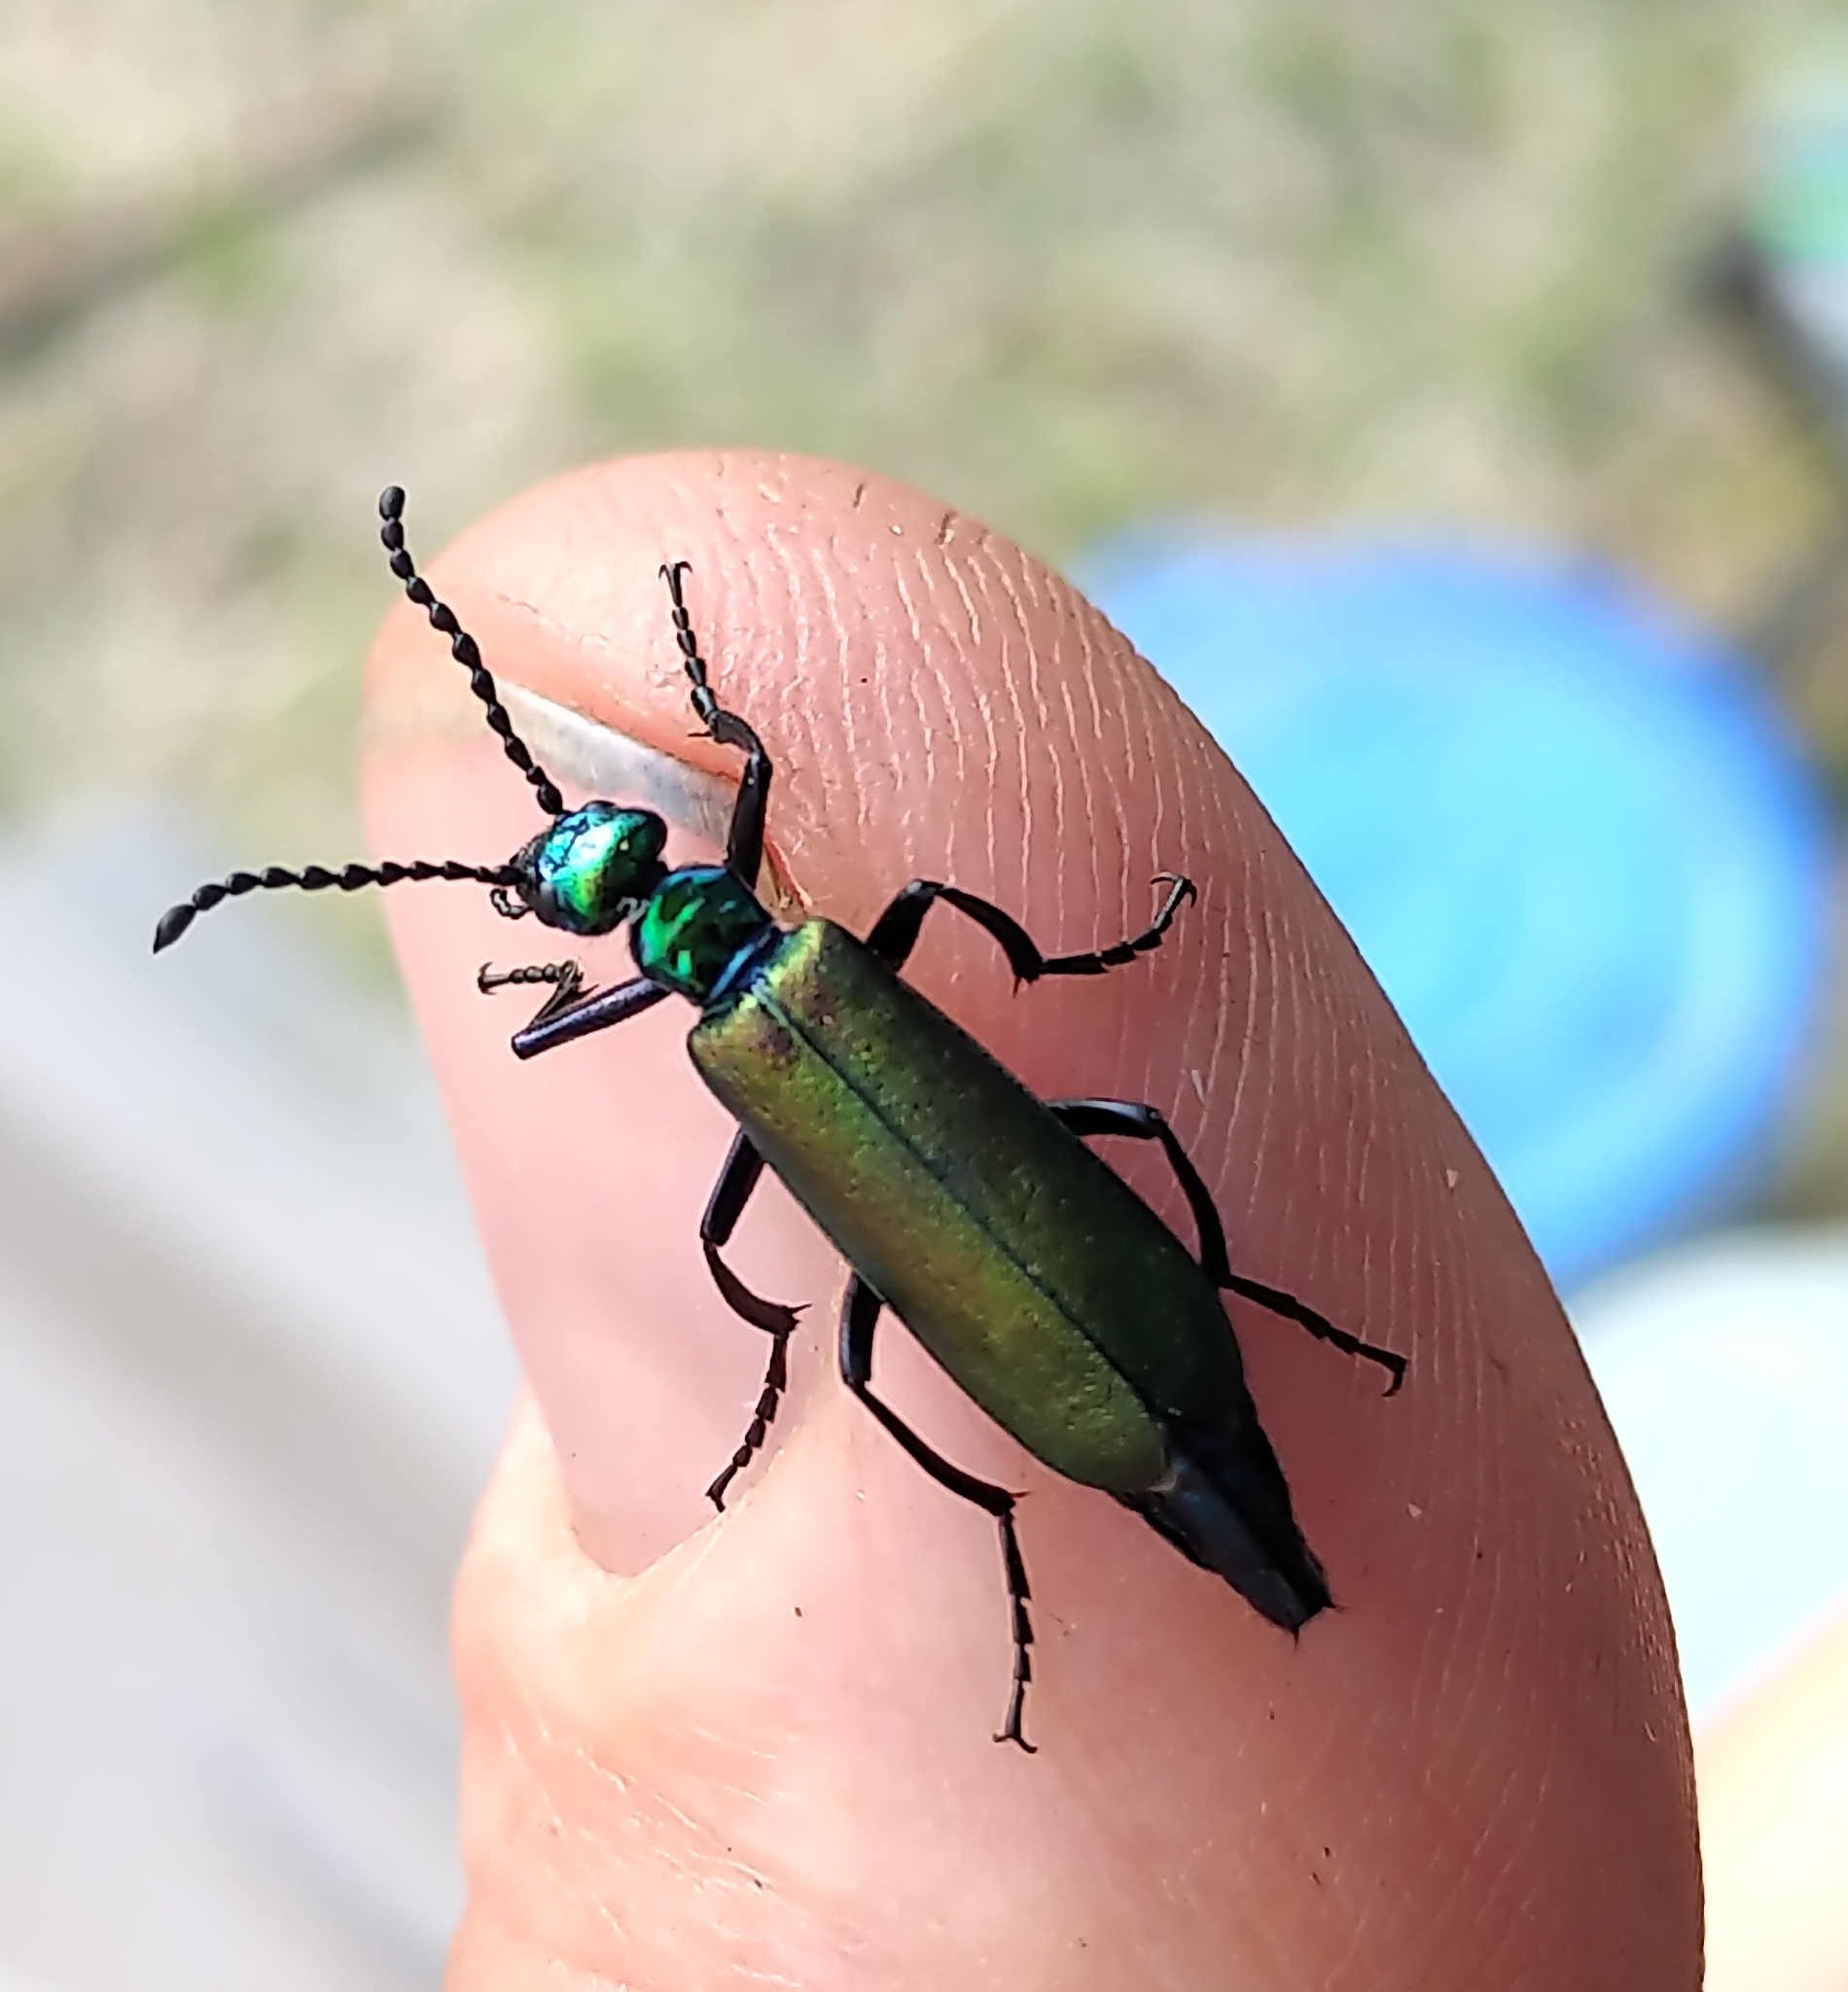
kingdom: Animalia
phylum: Arthropoda
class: Insecta
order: Coleoptera
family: Meloidae
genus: Lytta
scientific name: Lytta nuttallii
